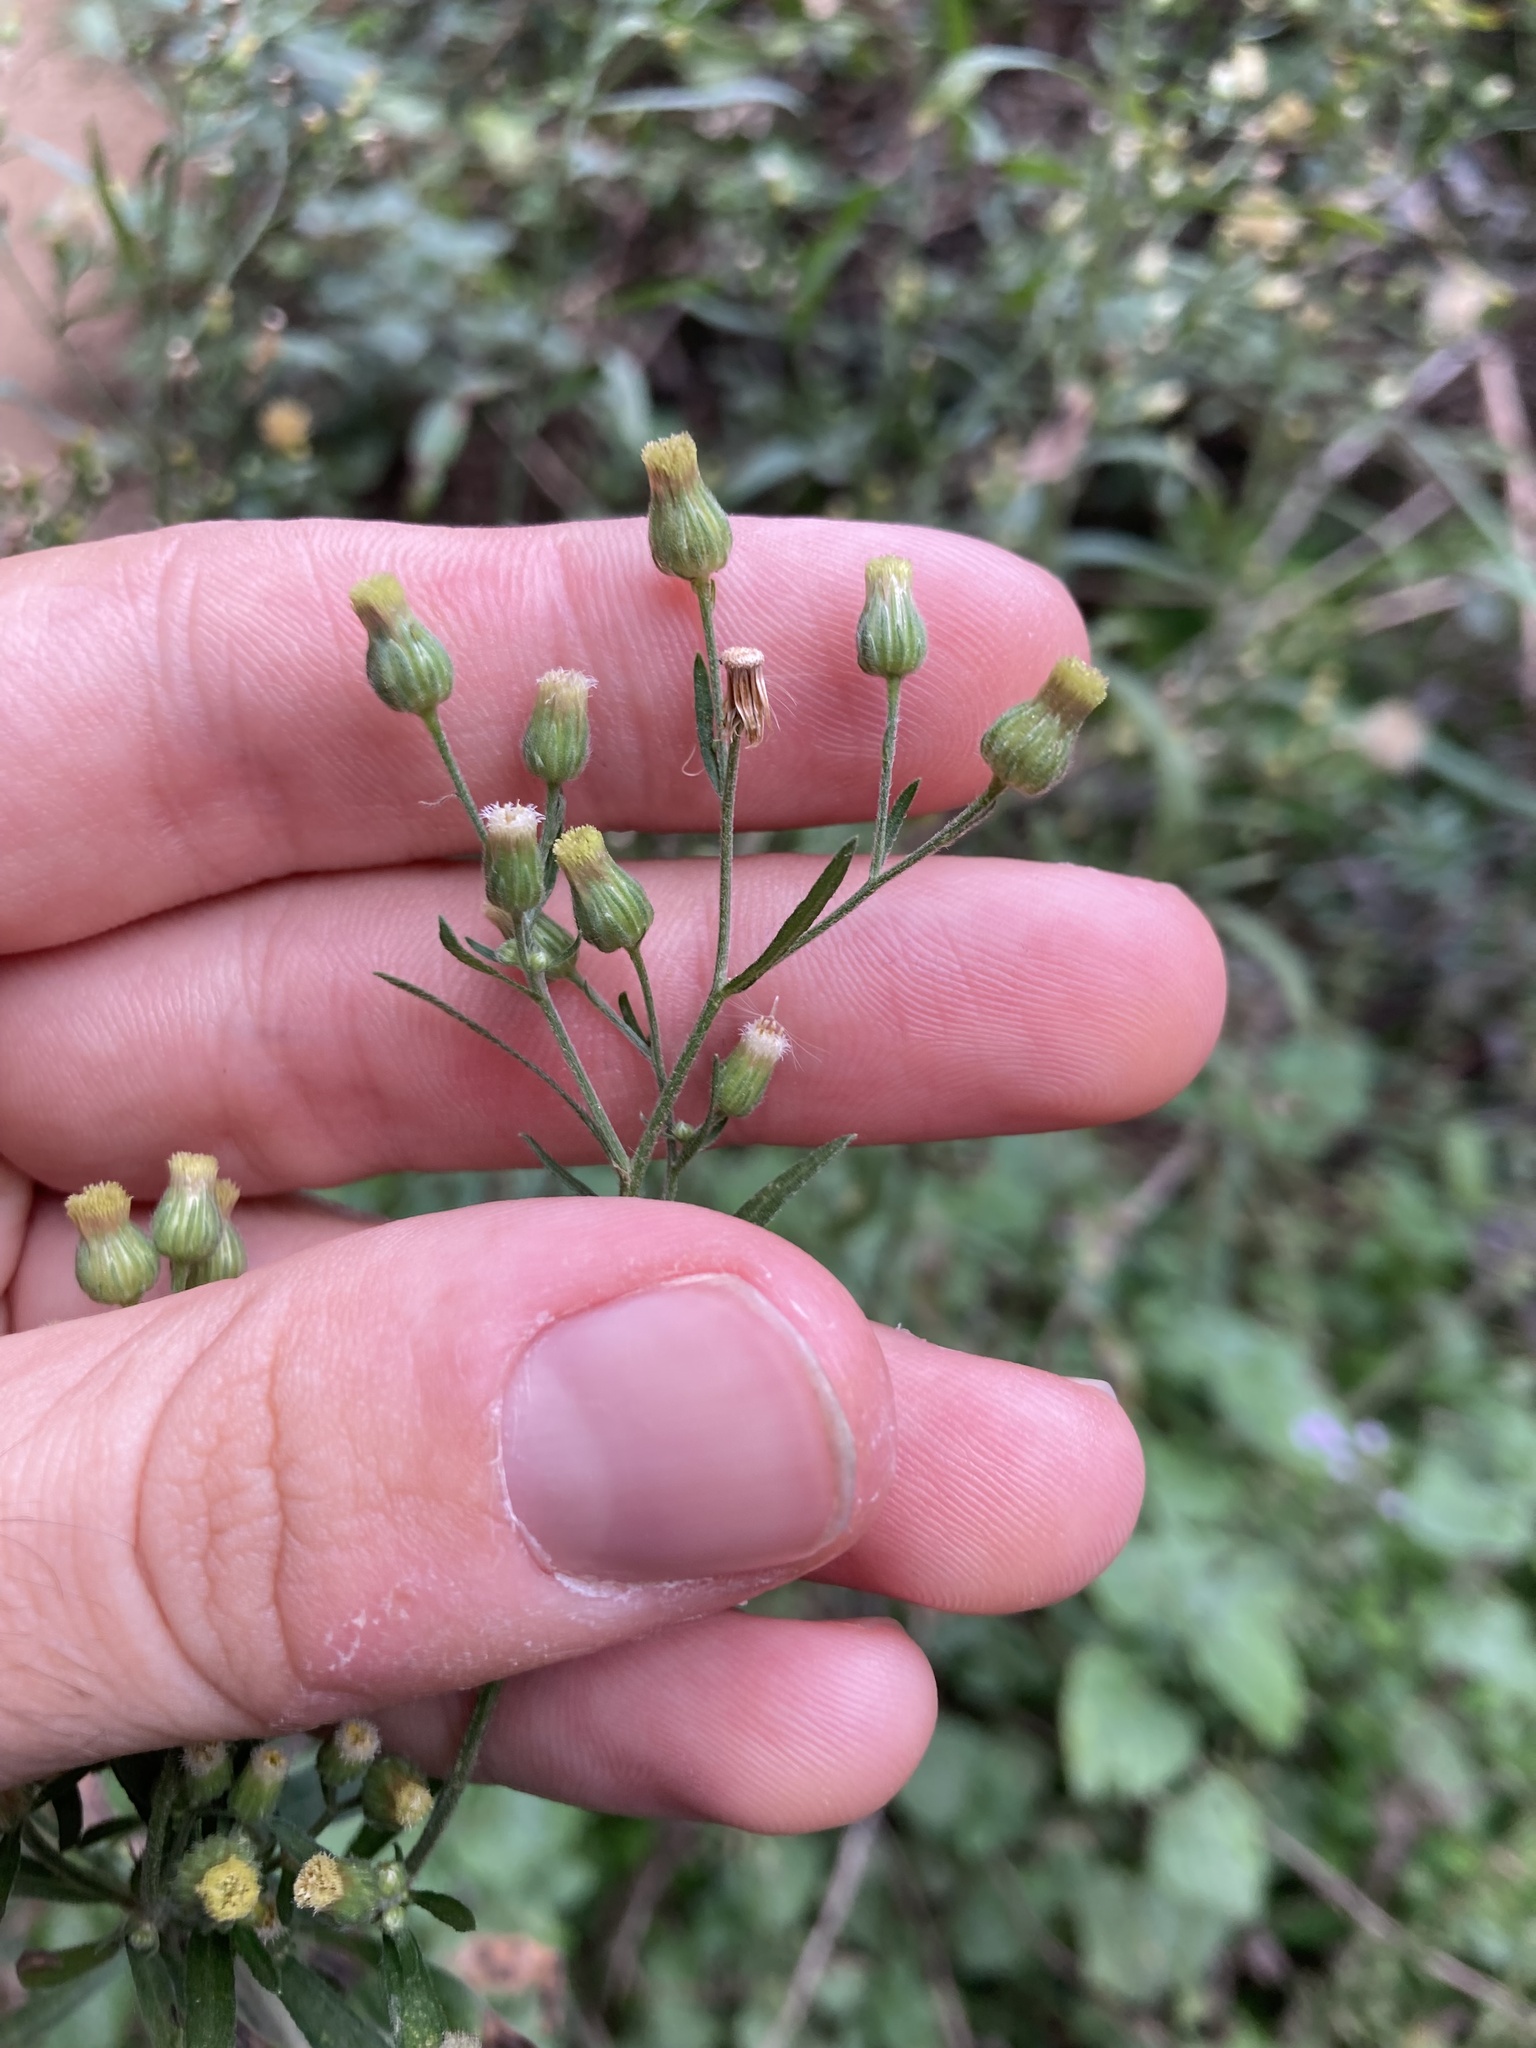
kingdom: Plantae
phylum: Tracheophyta
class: Magnoliopsida
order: Asterales
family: Asteraceae
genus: Erigeron
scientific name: Erigeron canadensis
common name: Canadian fleabane
